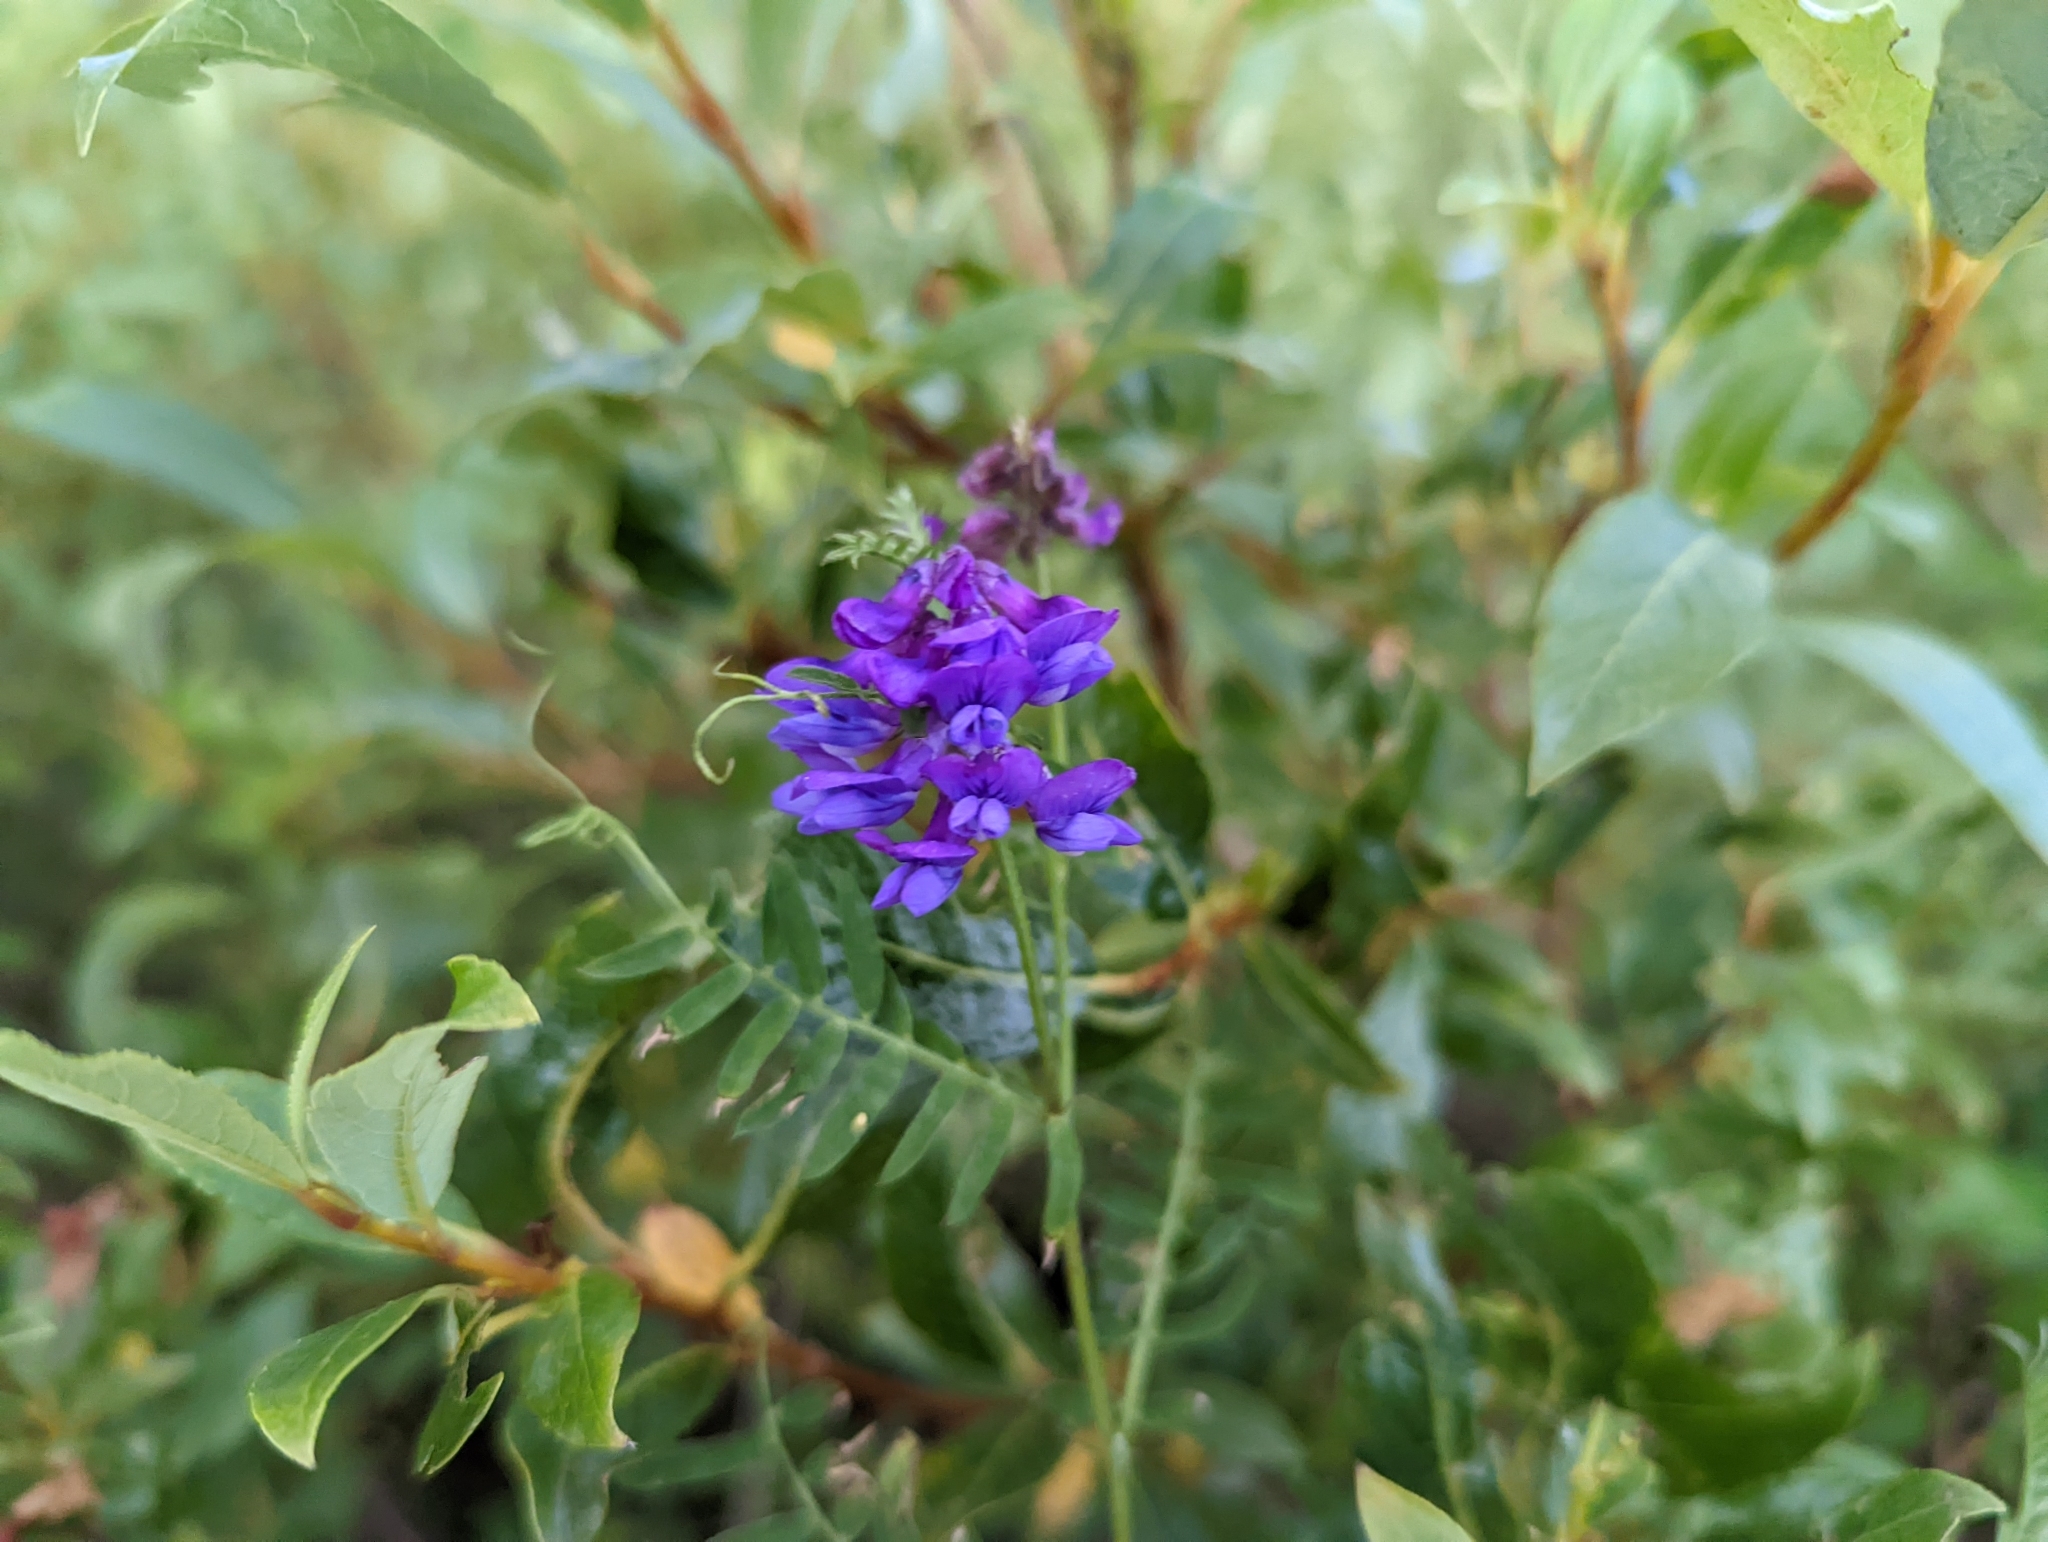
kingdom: Plantae
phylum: Tracheophyta
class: Magnoliopsida
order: Fabales
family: Fabaceae
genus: Vicia
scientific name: Vicia cracca
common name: Bird vetch
